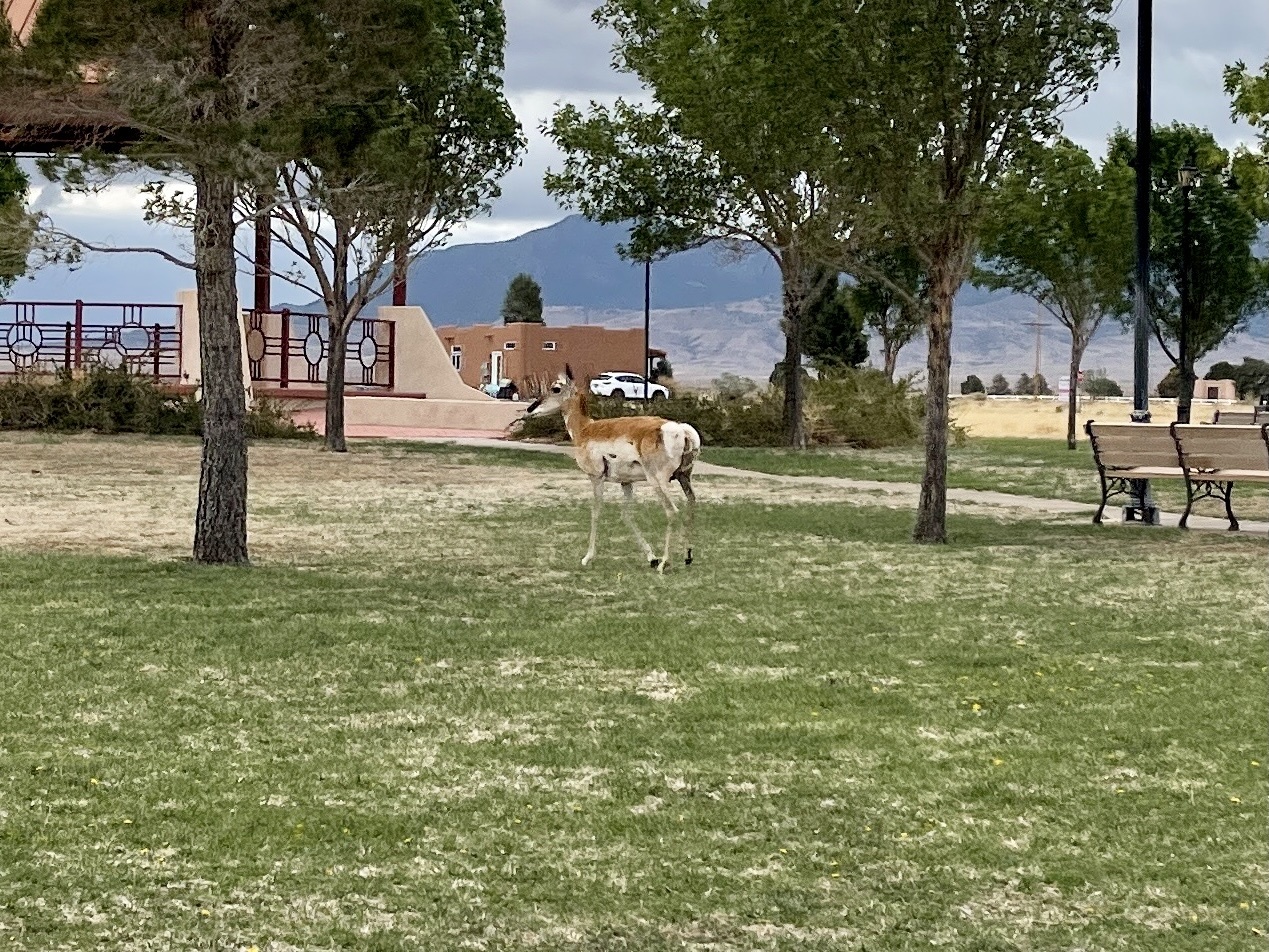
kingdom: Animalia
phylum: Chordata
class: Mammalia
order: Artiodactyla
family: Antilocapridae
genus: Antilocapra
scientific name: Antilocapra americana
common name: Pronghorn
